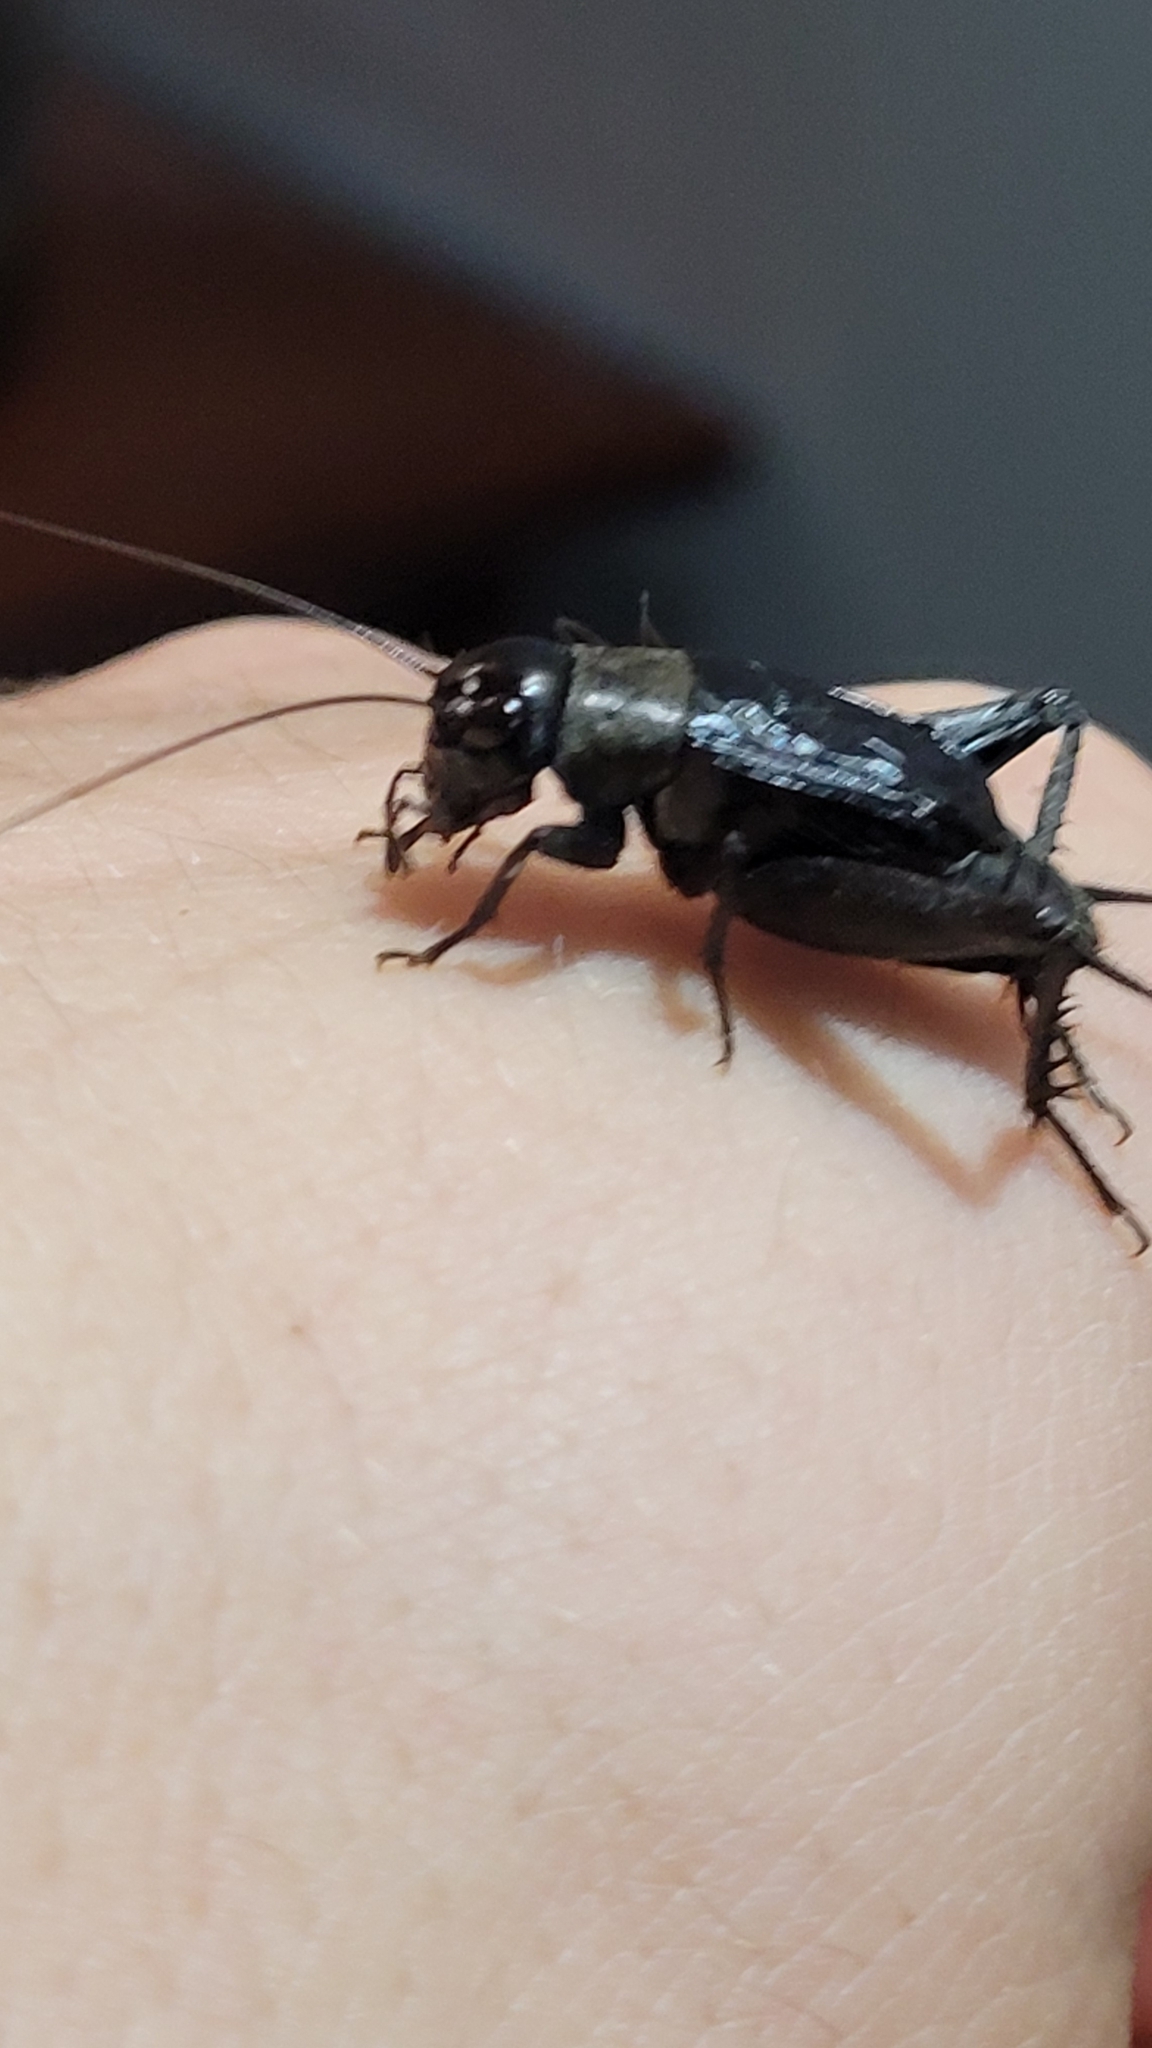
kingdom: Animalia
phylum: Arthropoda
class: Insecta
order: Orthoptera
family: Gryllidae
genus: Gryllus
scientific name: Gryllus pennsylvanicus
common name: Fall field cricket
